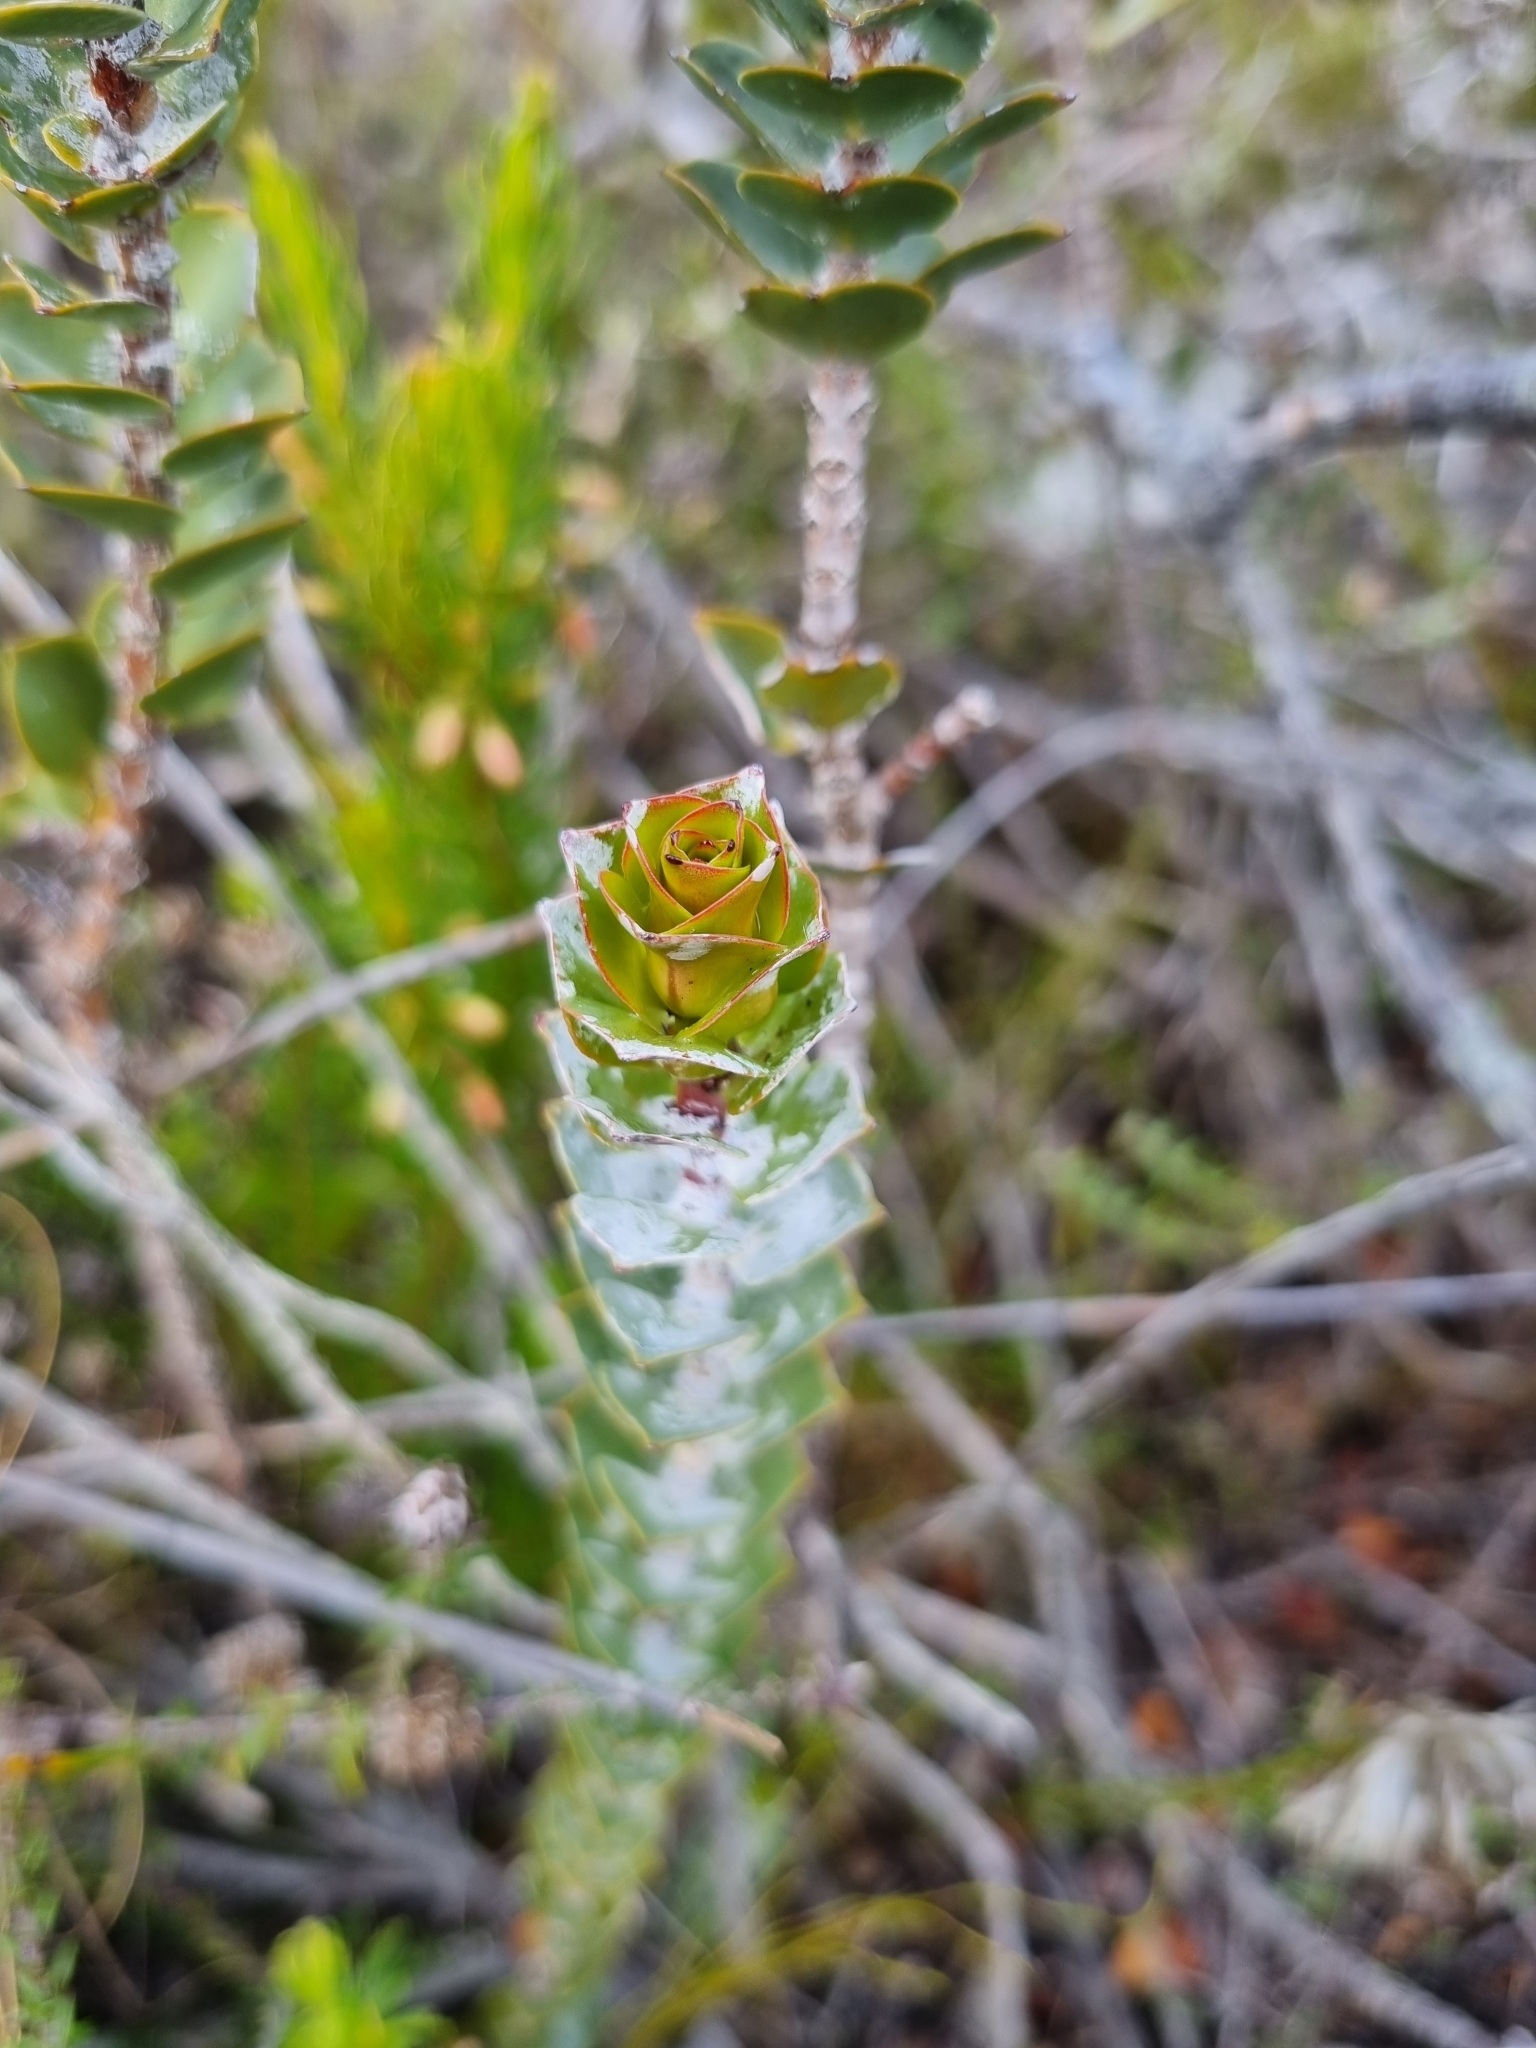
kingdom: Plantae
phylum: Tracheophyta
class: Magnoliopsida
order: Myrtales
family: Penaeaceae
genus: Saltera
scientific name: Saltera sarcocolla
